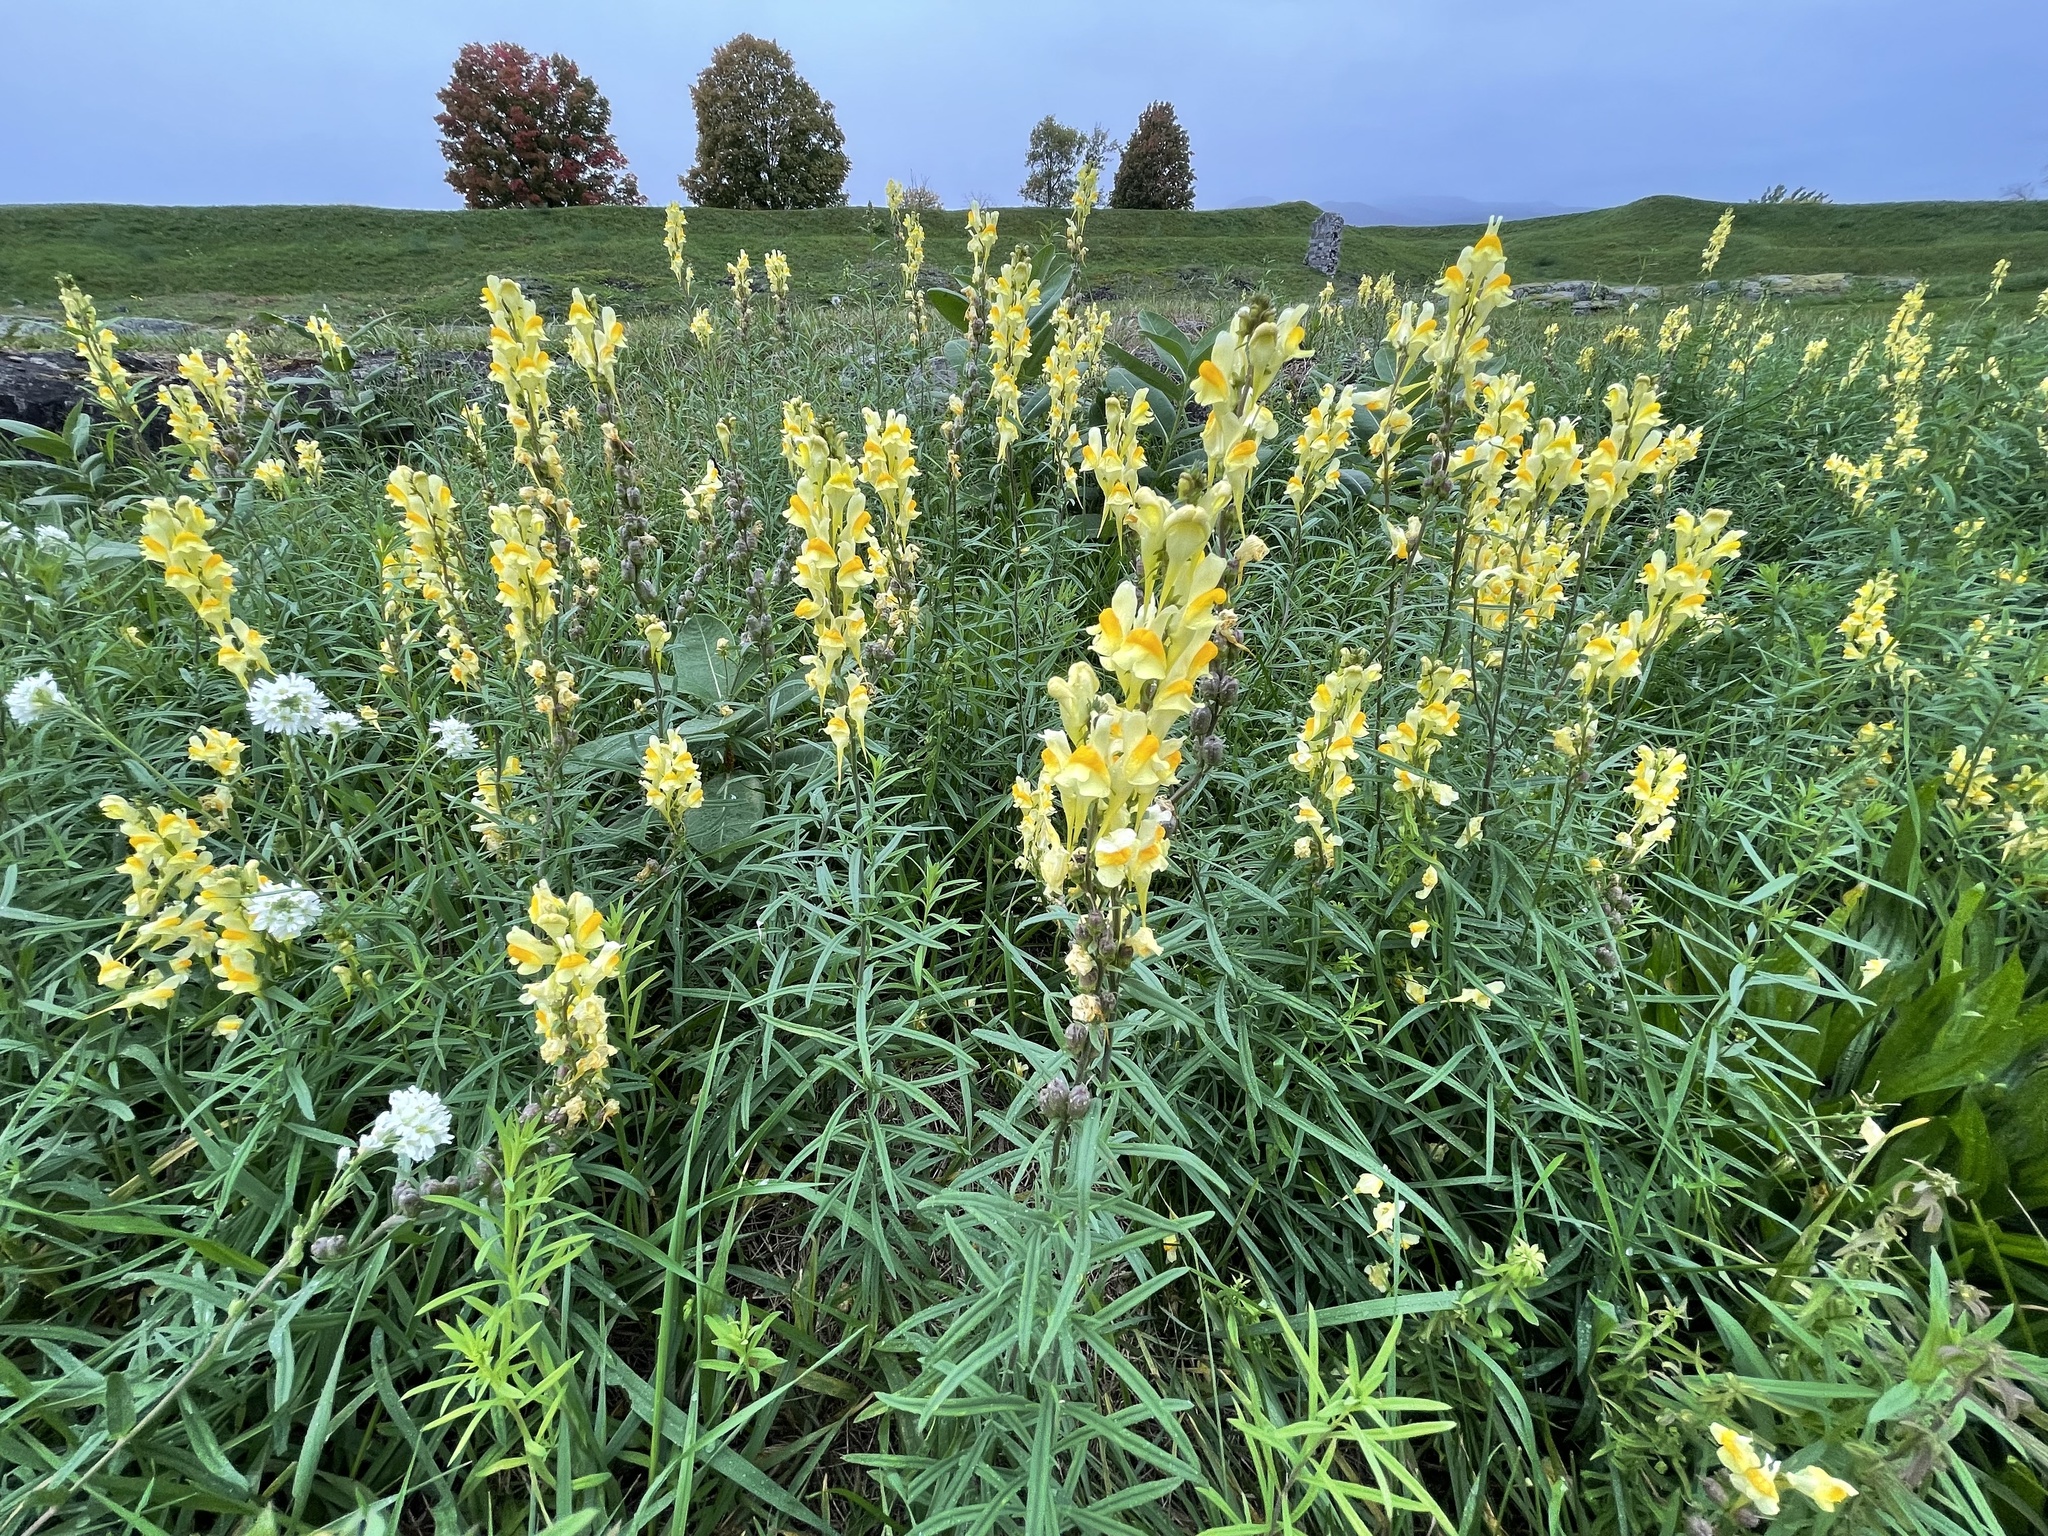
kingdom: Plantae
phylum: Tracheophyta
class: Magnoliopsida
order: Lamiales
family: Plantaginaceae
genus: Linaria
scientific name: Linaria vulgaris
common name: Butter and eggs
